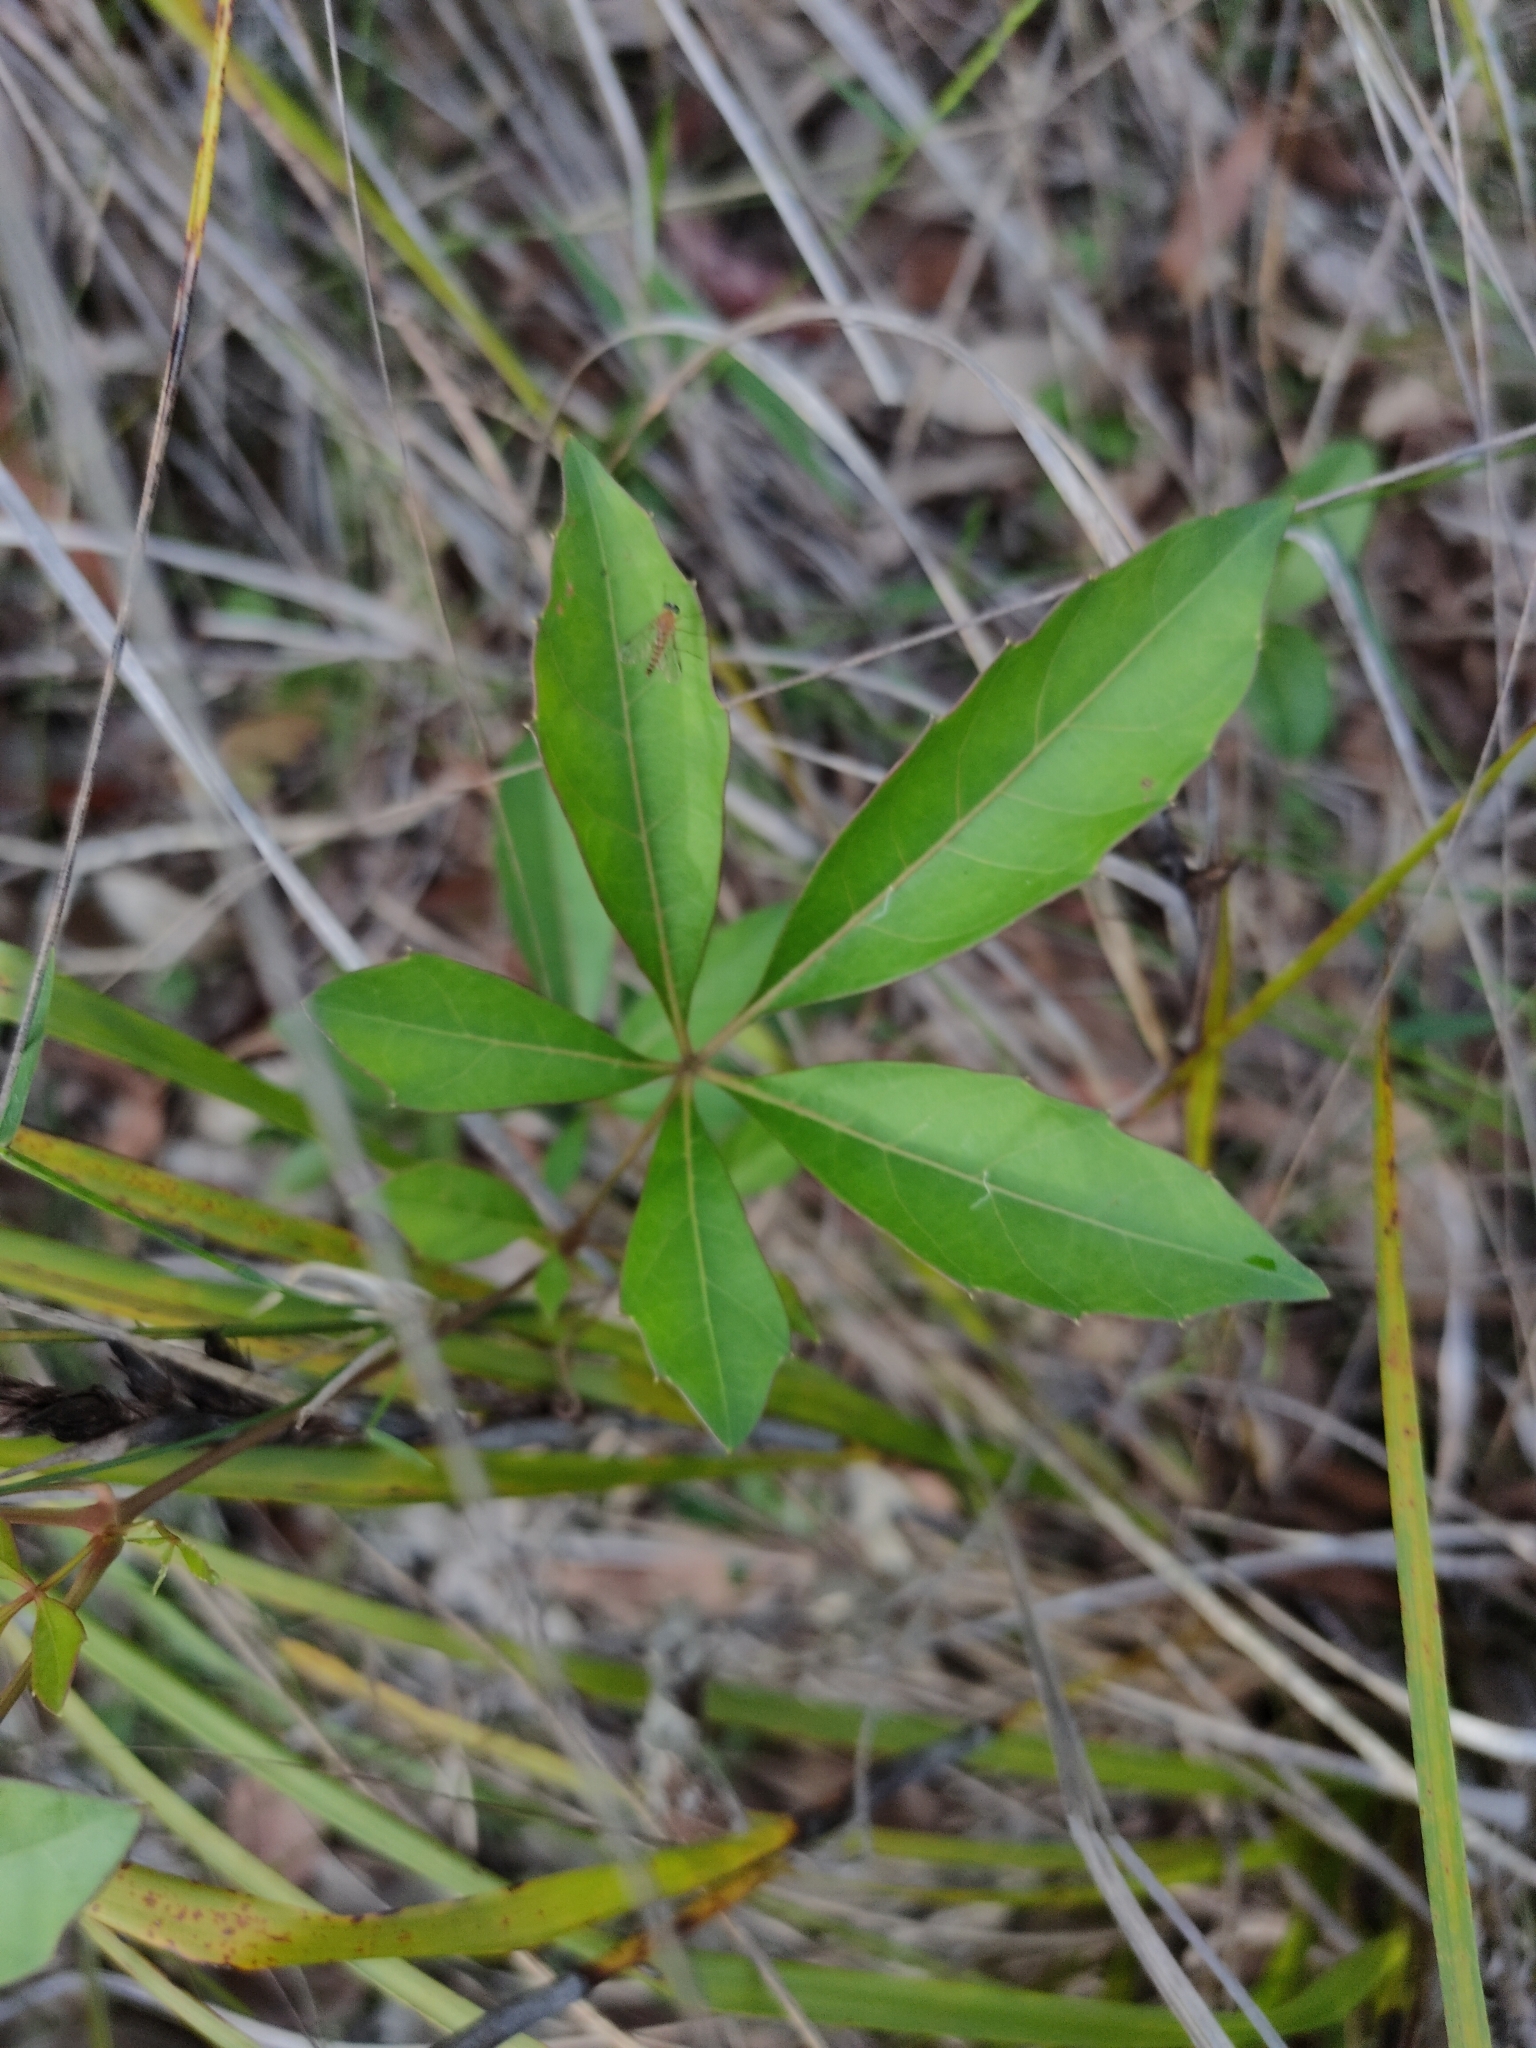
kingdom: Plantae
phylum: Tracheophyta
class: Magnoliopsida
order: Vitales
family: Vitaceae
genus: Clematicissus
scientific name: Clematicissus opaca
